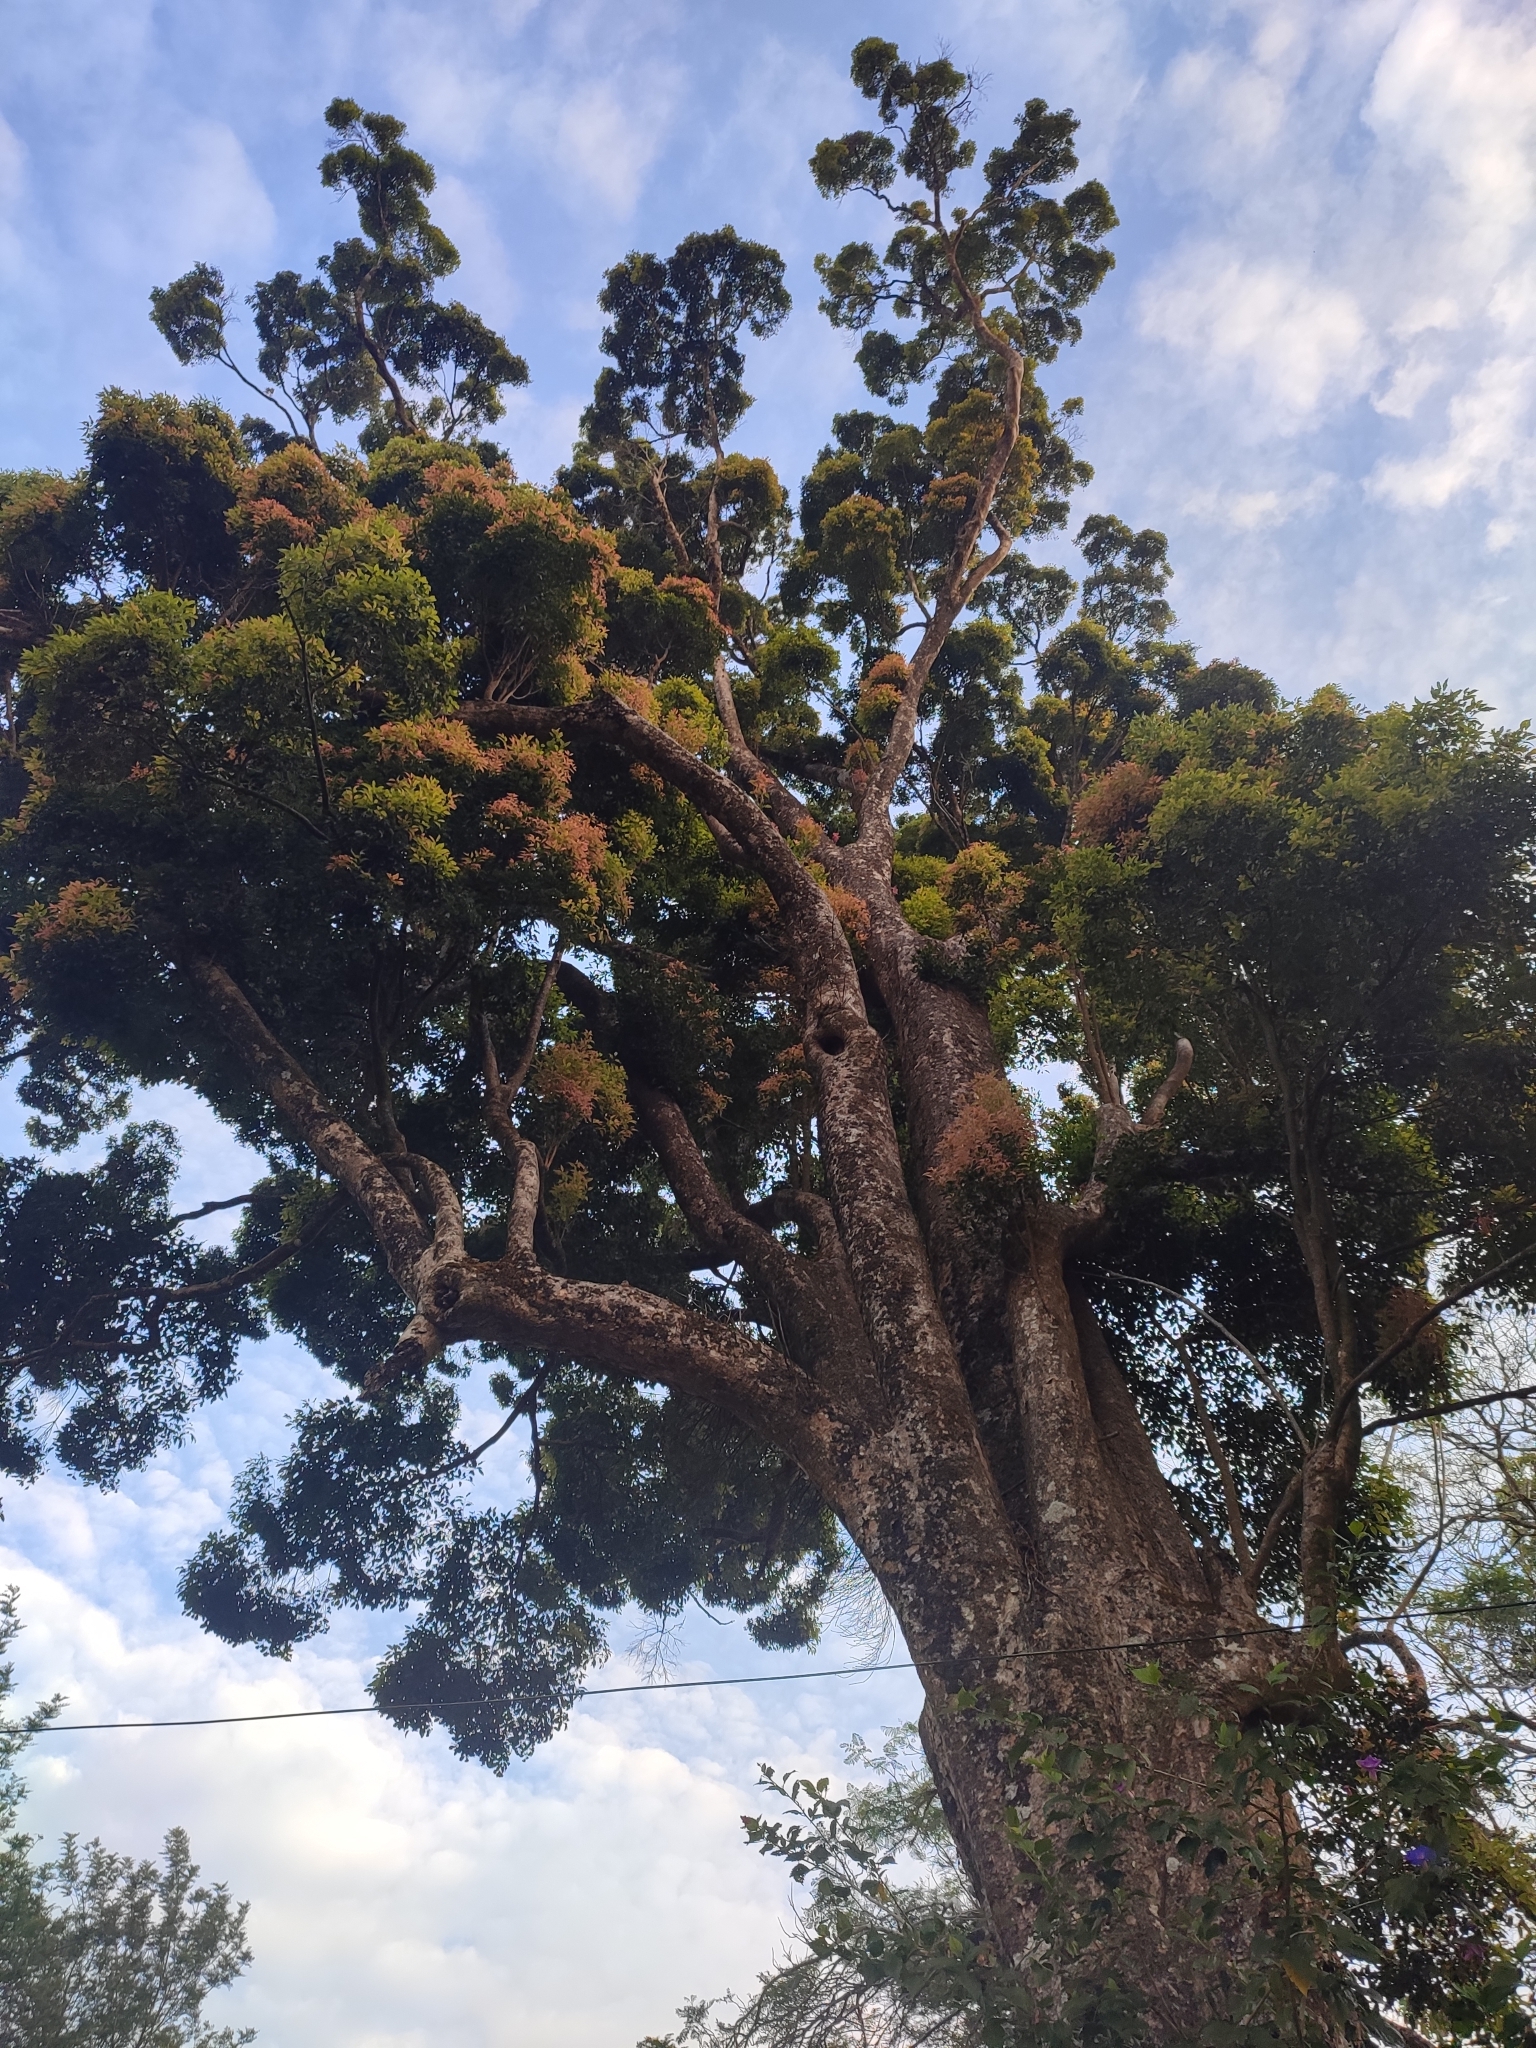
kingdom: Plantae
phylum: Tracheophyta
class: Magnoliopsida
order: Myrtales
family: Myrtaceae
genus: Syzygium
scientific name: Syzygium densiflorum
